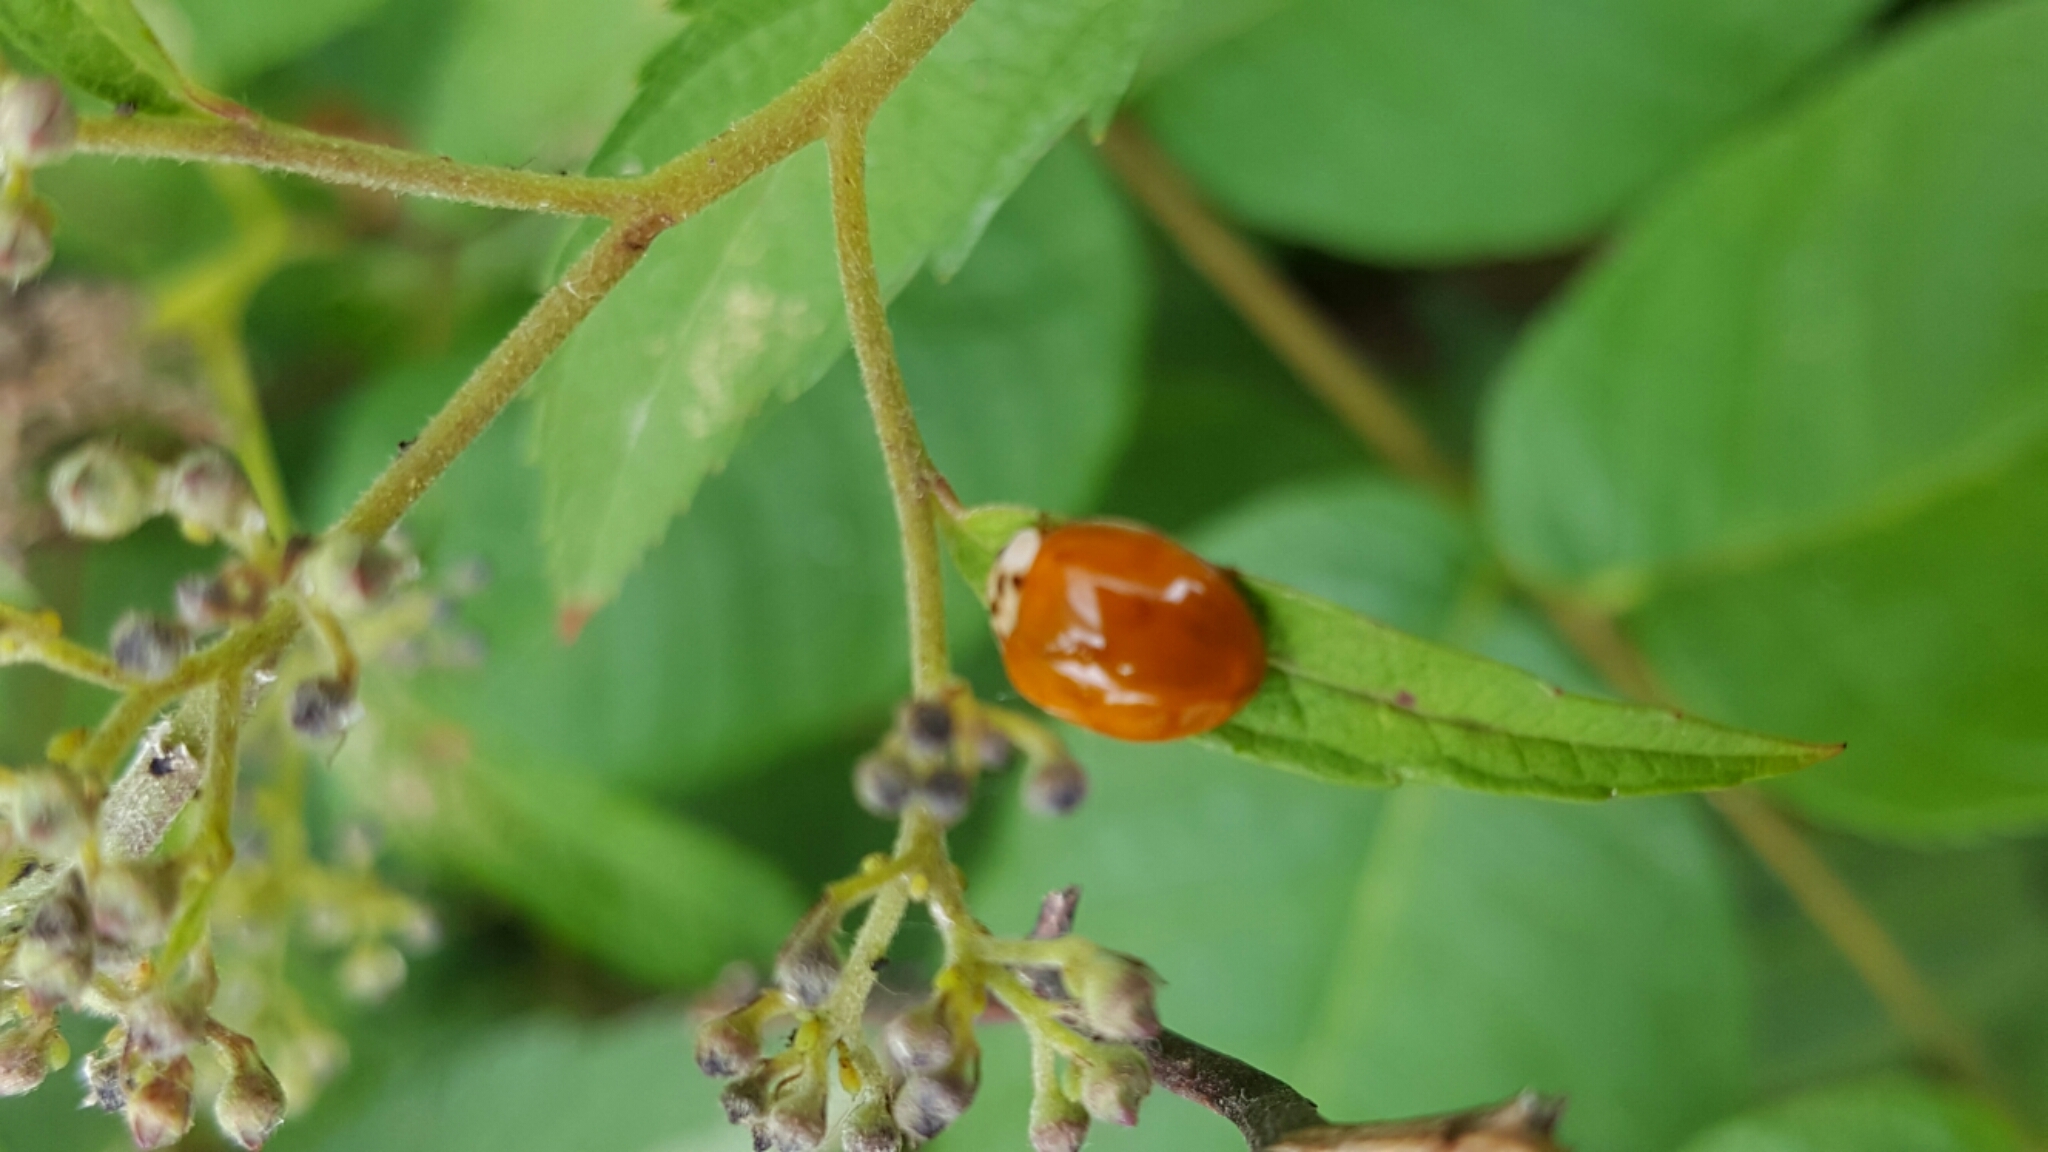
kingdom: Animalia
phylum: Arthropoda
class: Insecta
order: Coleoptera
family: Coccinellidae
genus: Harmonia
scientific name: Harmonia axyridis
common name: Harlequin ladybird
